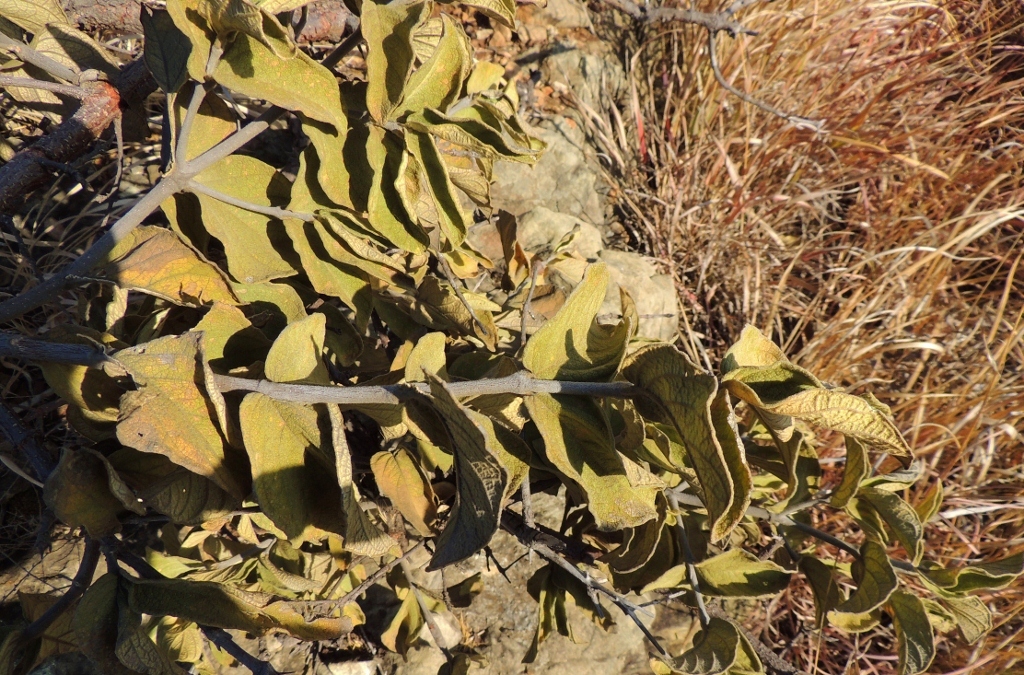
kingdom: Plantae
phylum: Tracheophyta
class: Magnoliopsida
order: Gentianales
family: Rubiaceae
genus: Vangueria
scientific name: Vangueria vestita
